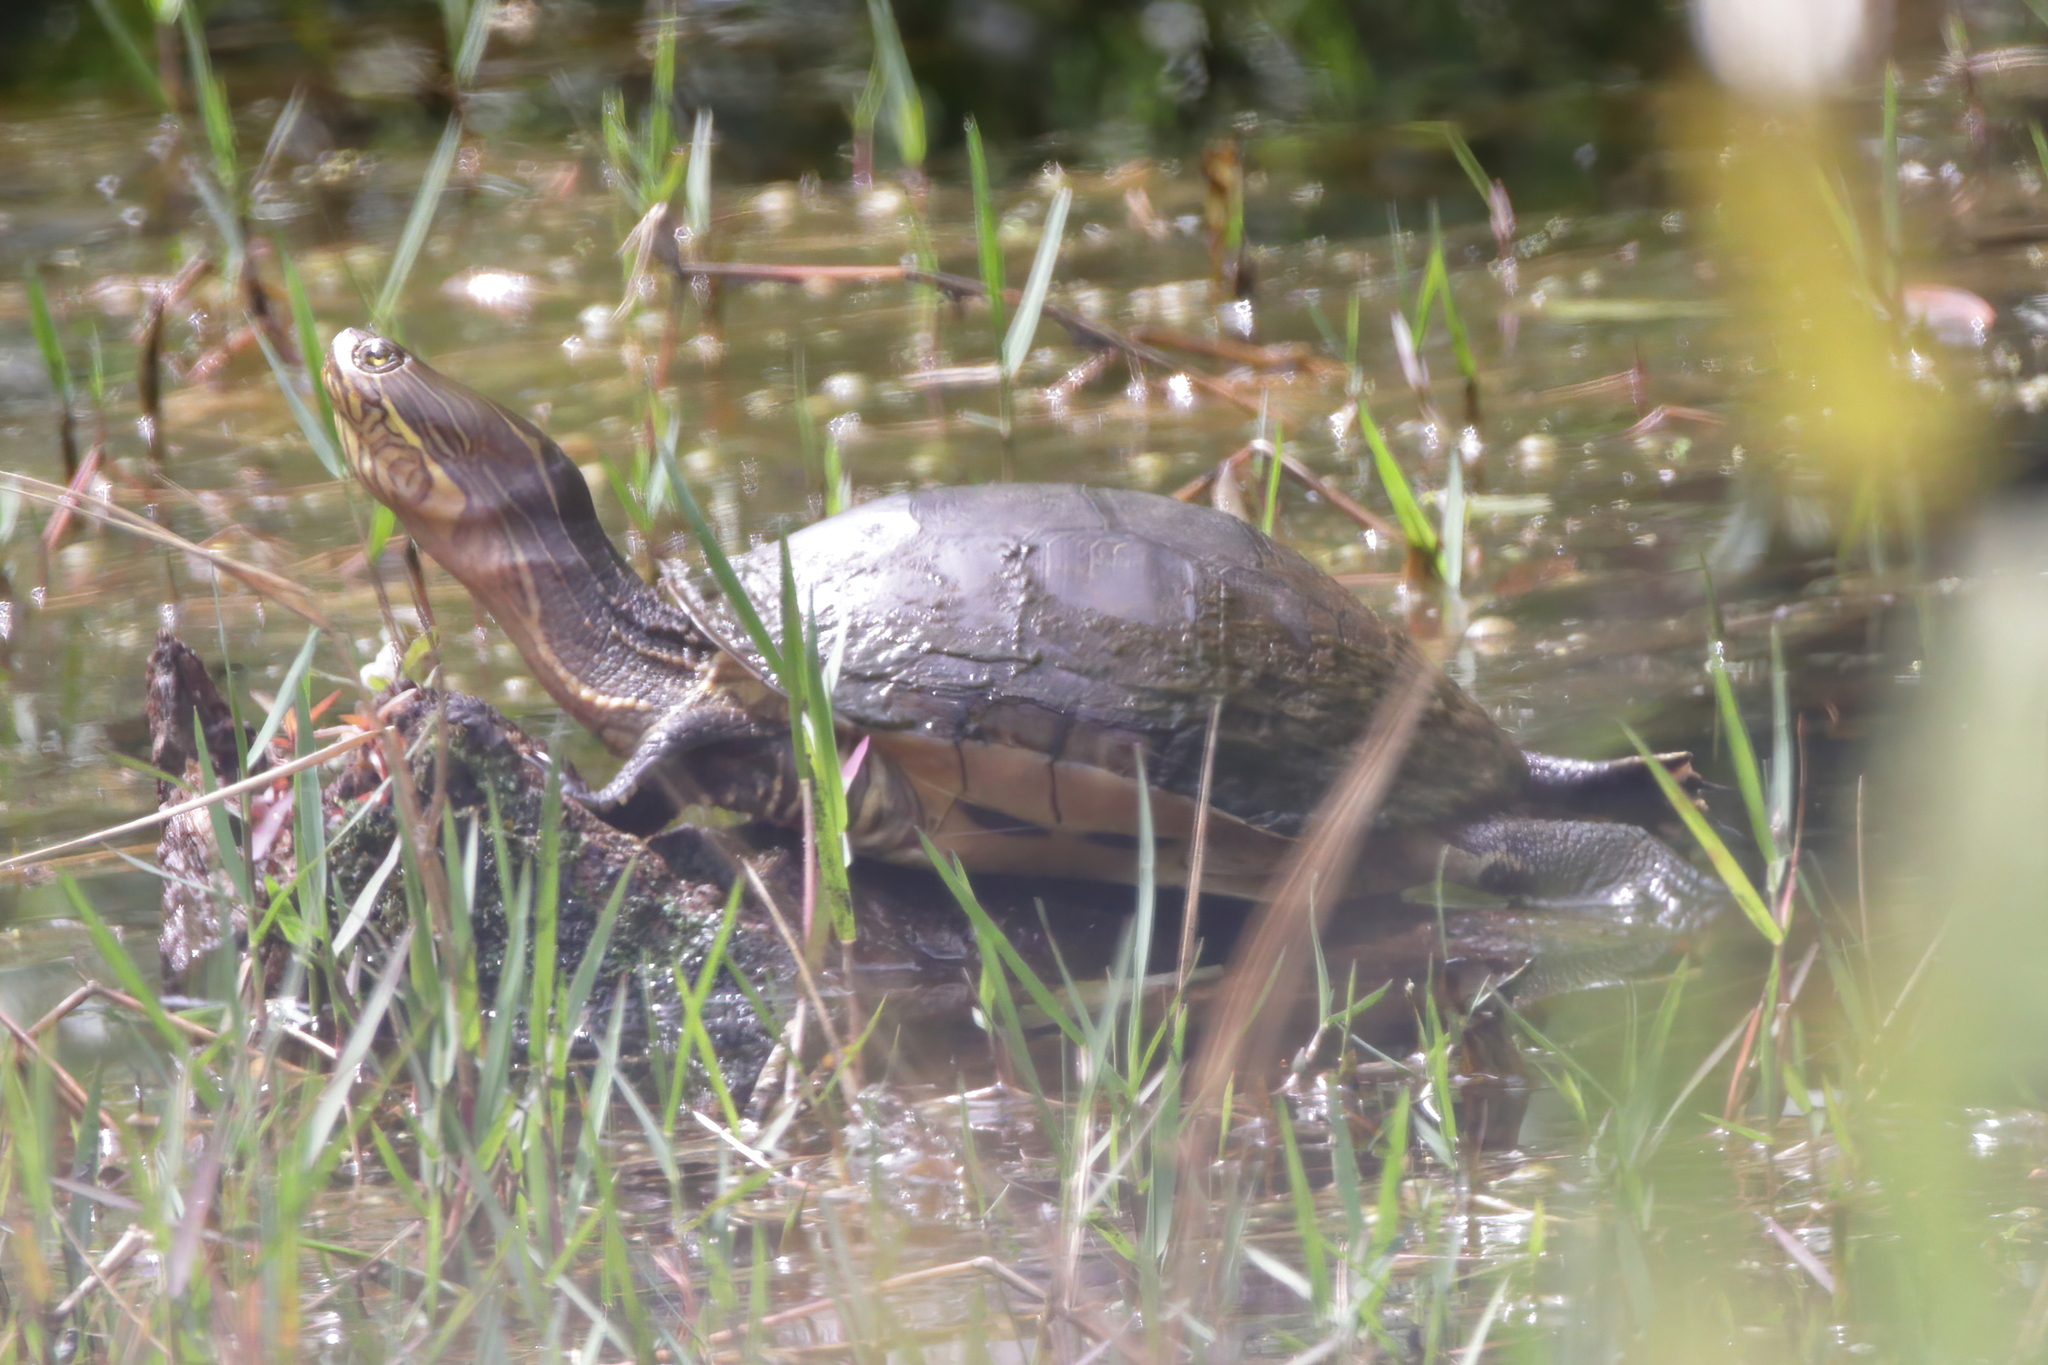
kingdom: Animalia
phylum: Chordata
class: Testudines
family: Emydidae
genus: Deirochelys
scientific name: Deirochelys reticularia
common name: Chicken turtle
